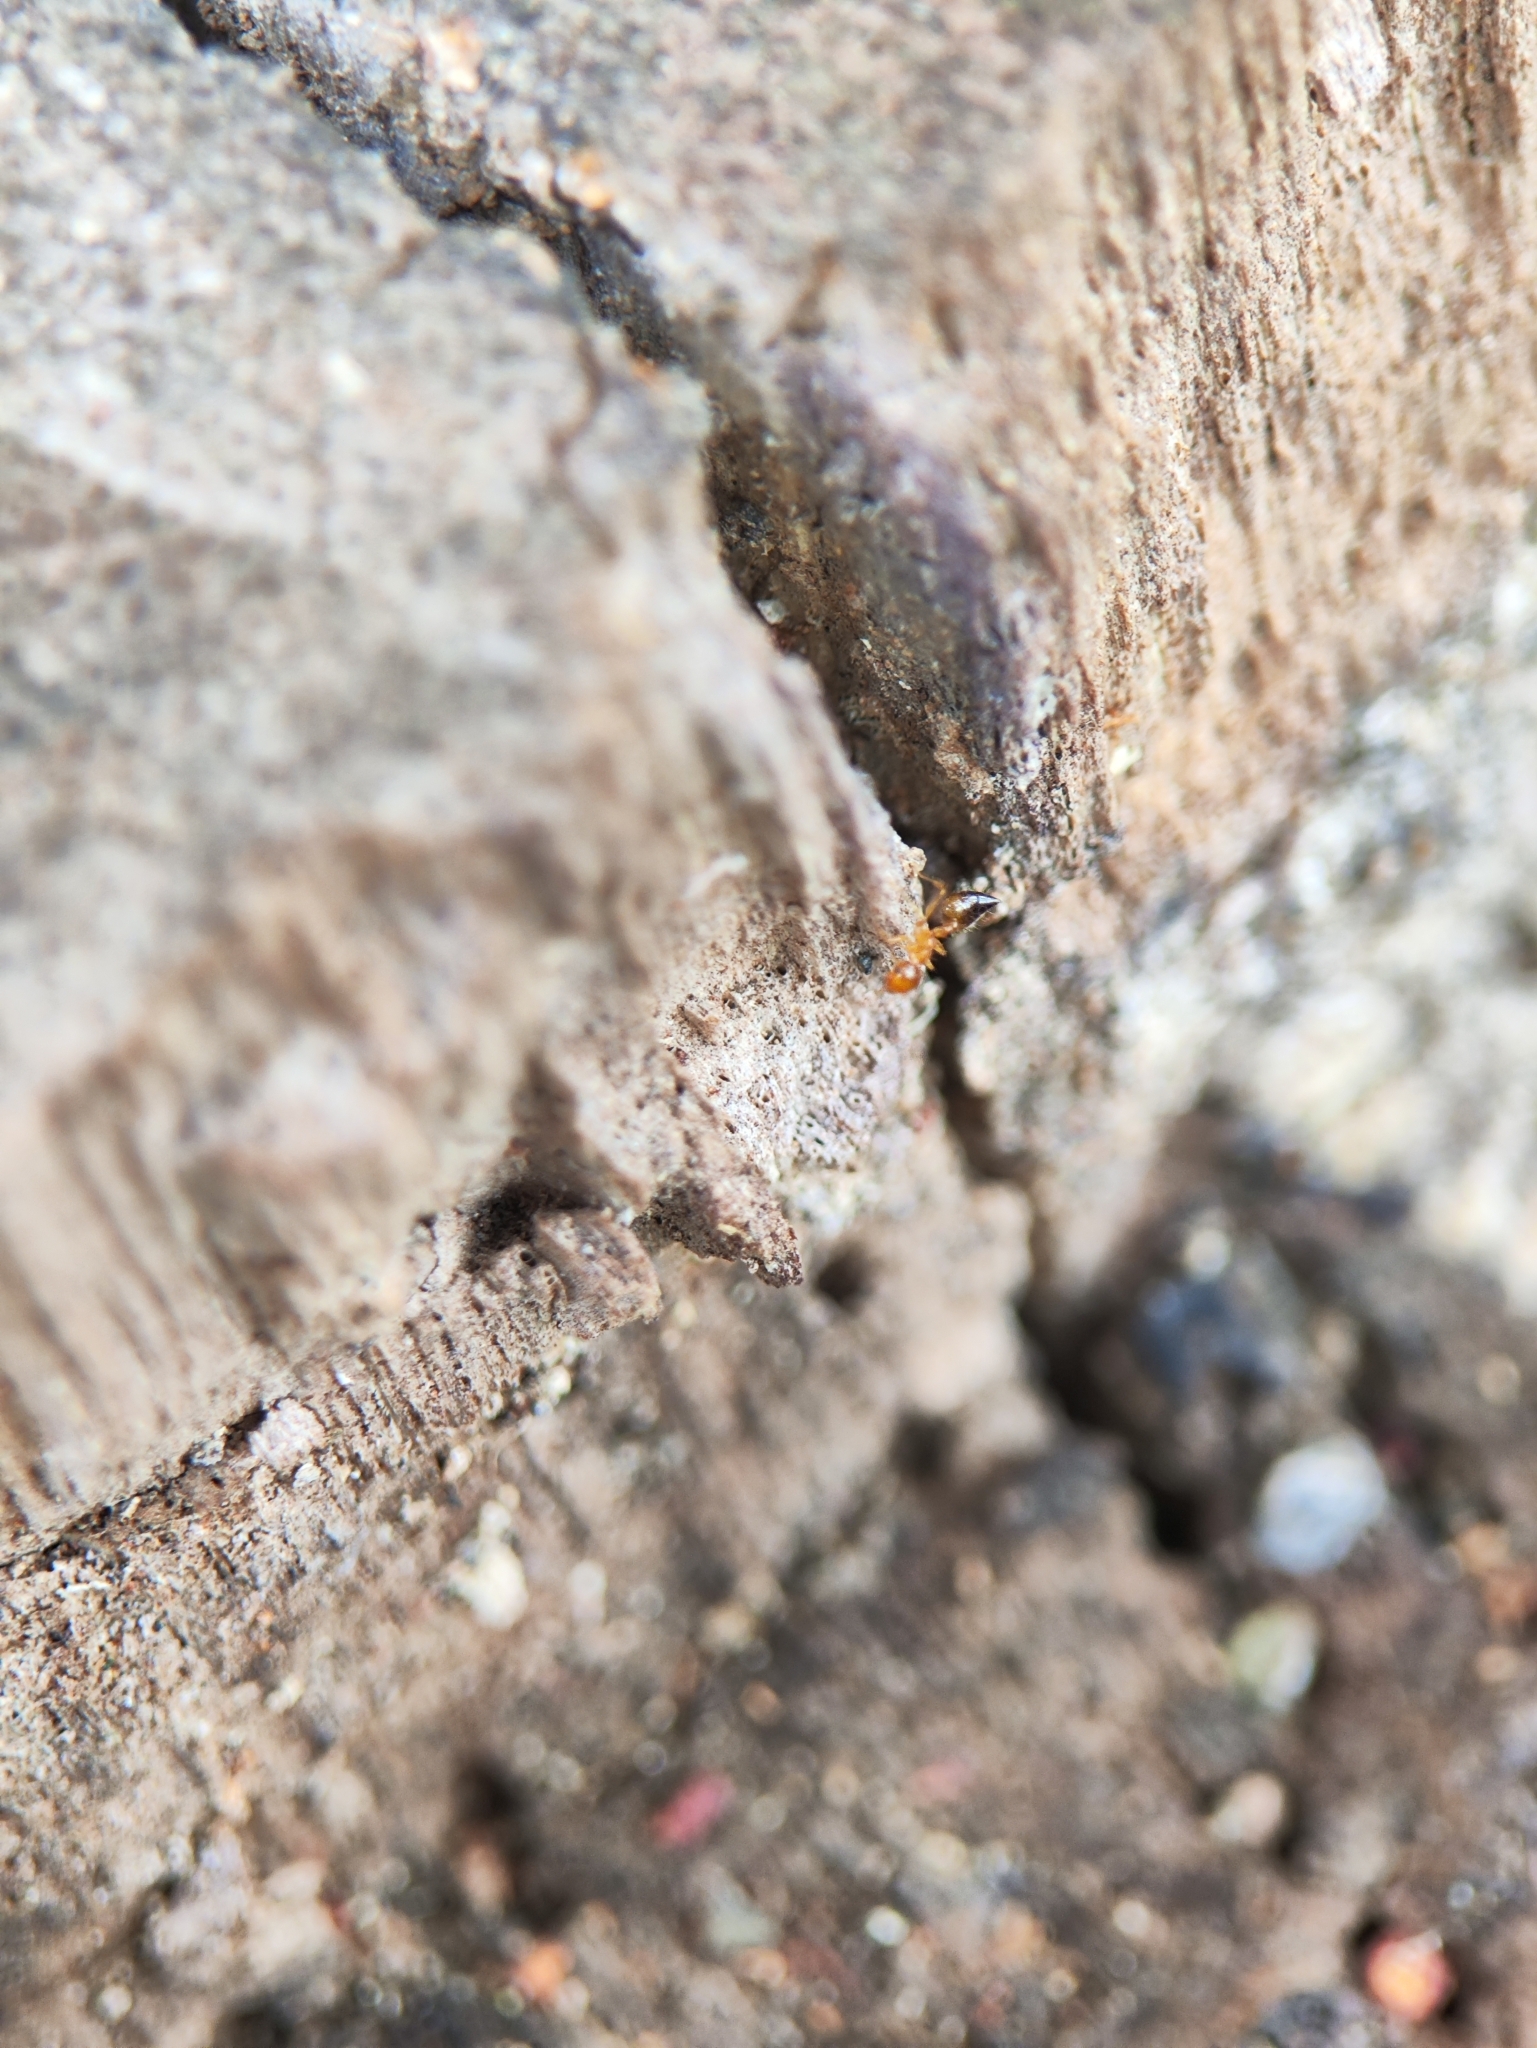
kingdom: Animalia
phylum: Arthropoda
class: Insecta
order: Hymenoptera
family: Formicidae
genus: Crematogaster
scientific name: Crematogaster biroi
